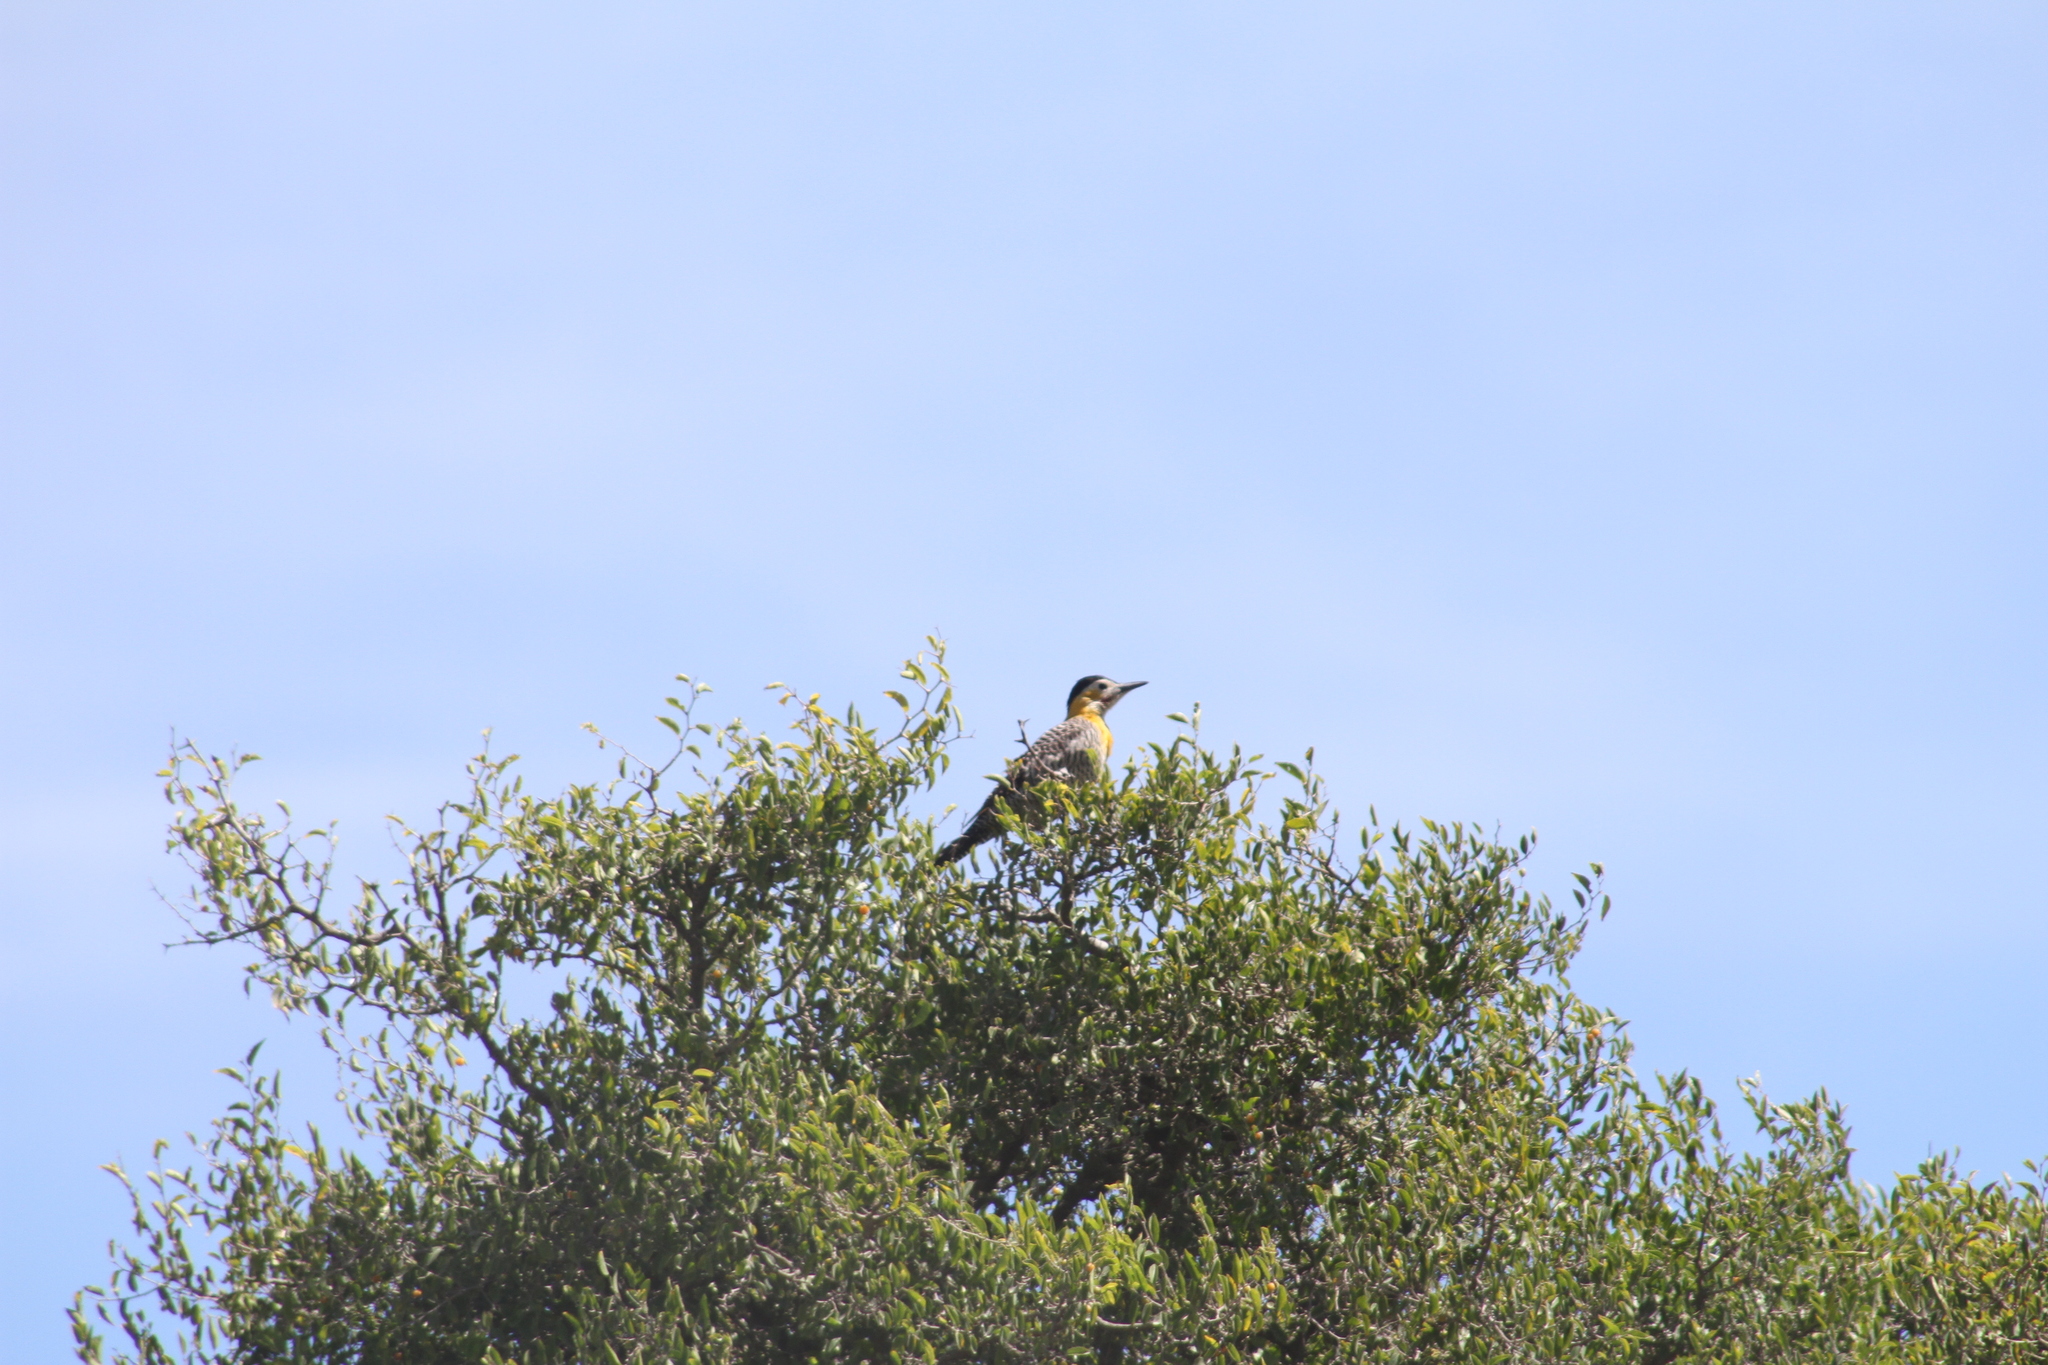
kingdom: Animalia
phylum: Chordata
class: Aves
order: Piciformes
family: Picidae
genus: Colaptes
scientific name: Colaptes campestris
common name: Campo flicker
